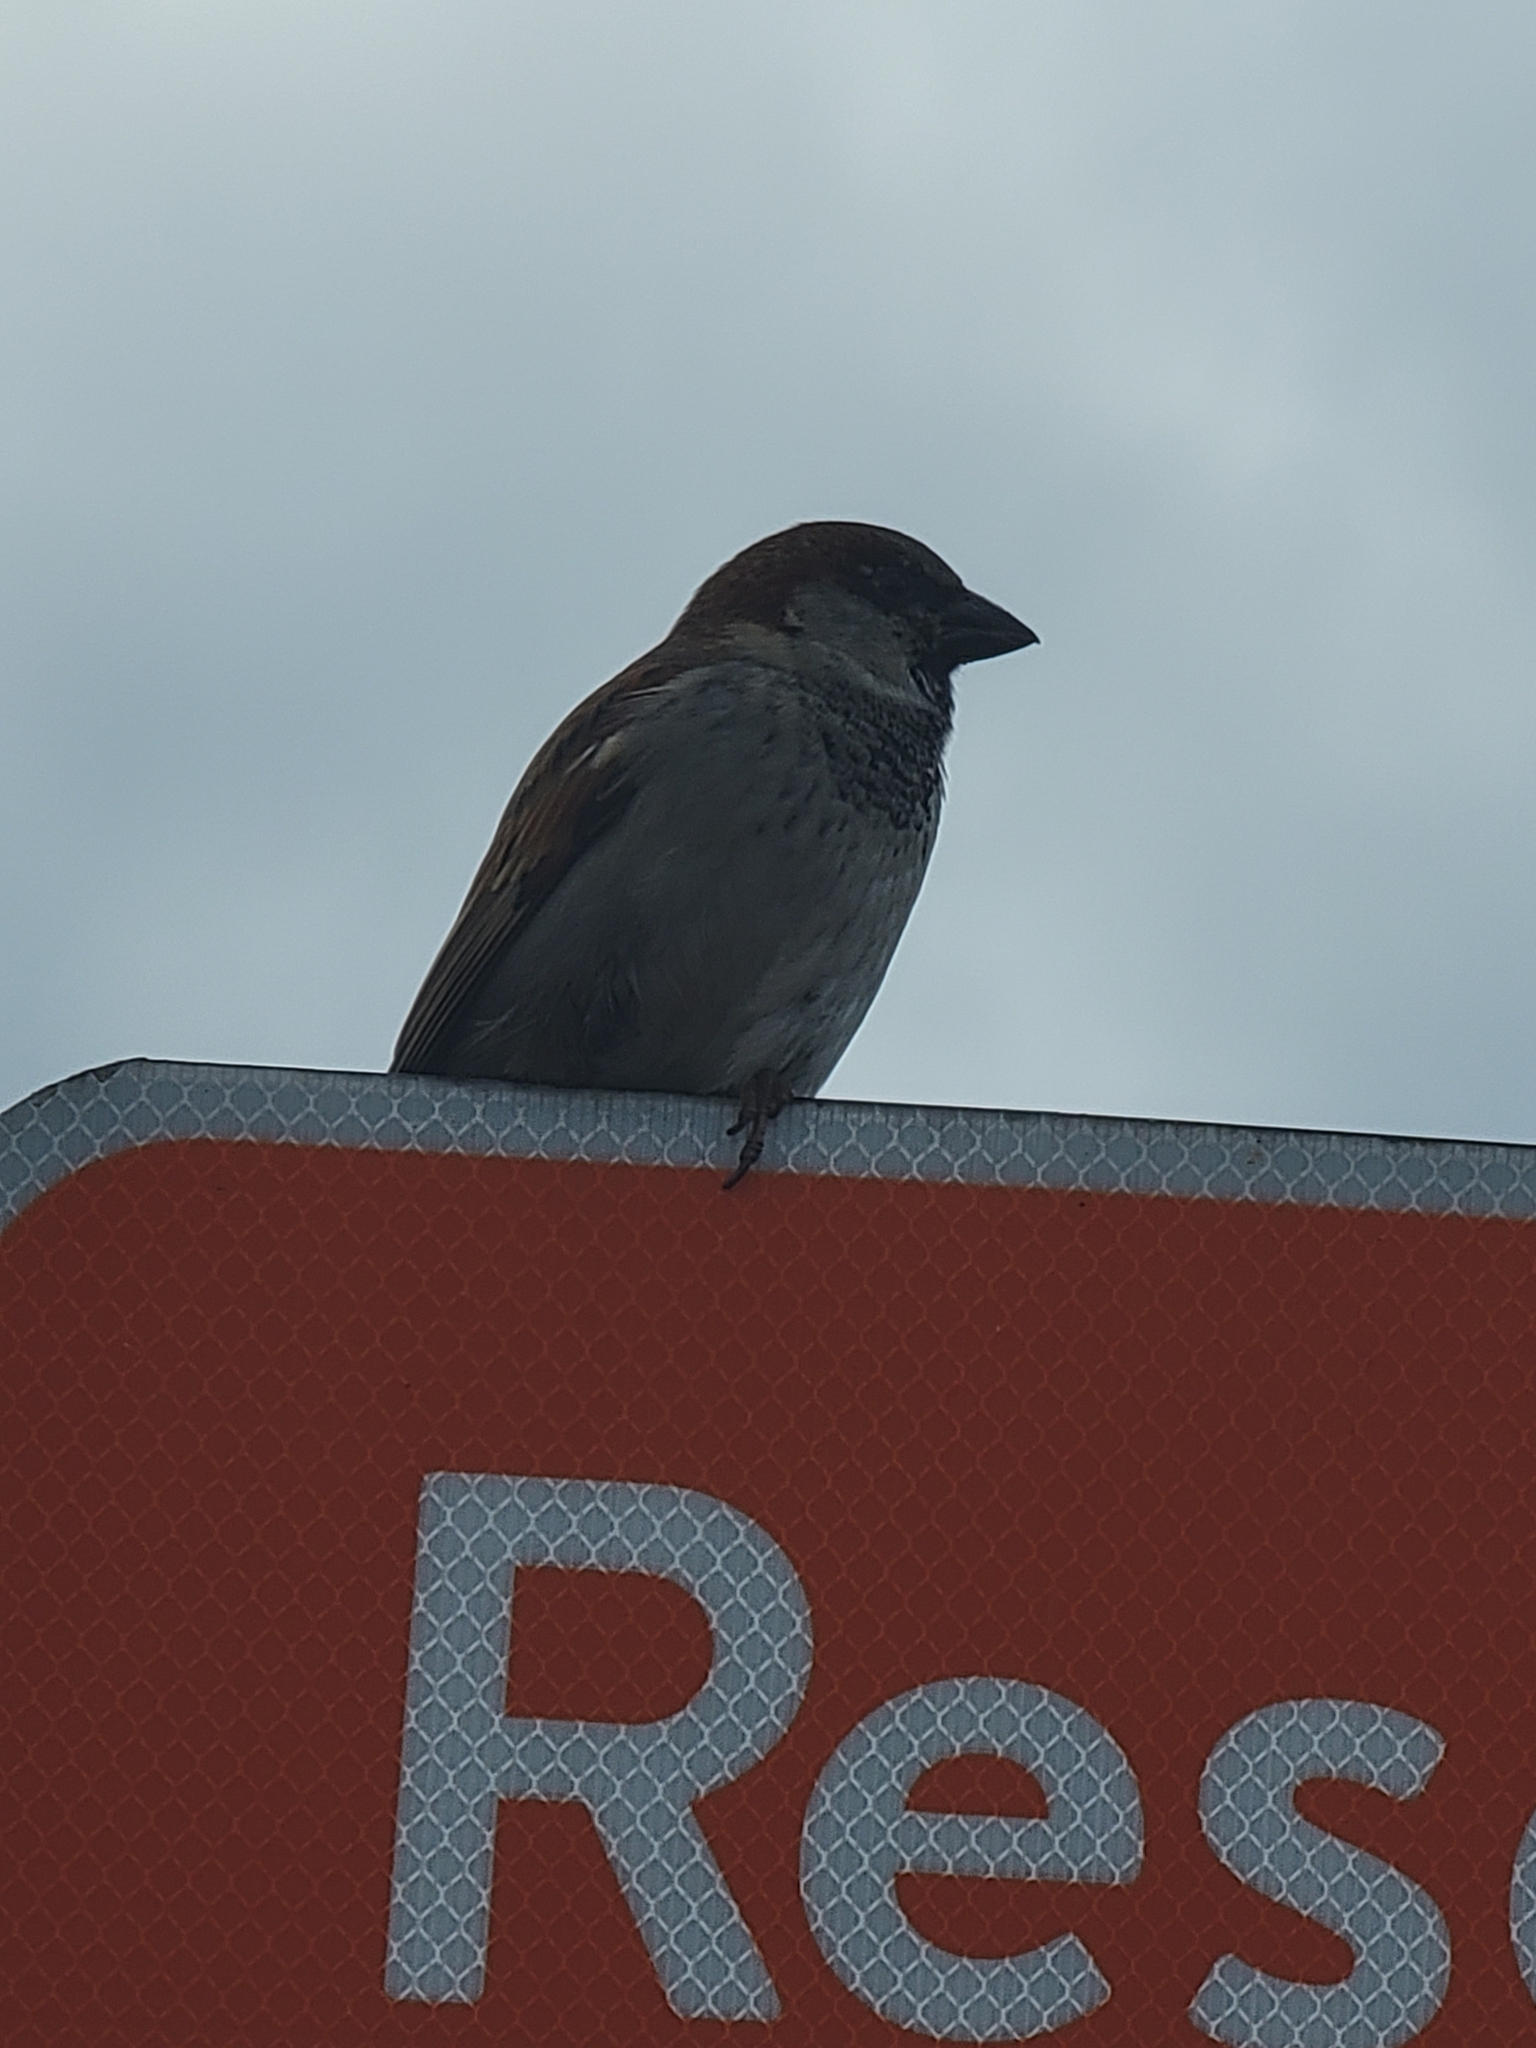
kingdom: Animalia
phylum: Chordata
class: Aves
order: Passeriformes
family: Passeridae
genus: Passer
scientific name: Passer domesticus
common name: House sparrow
